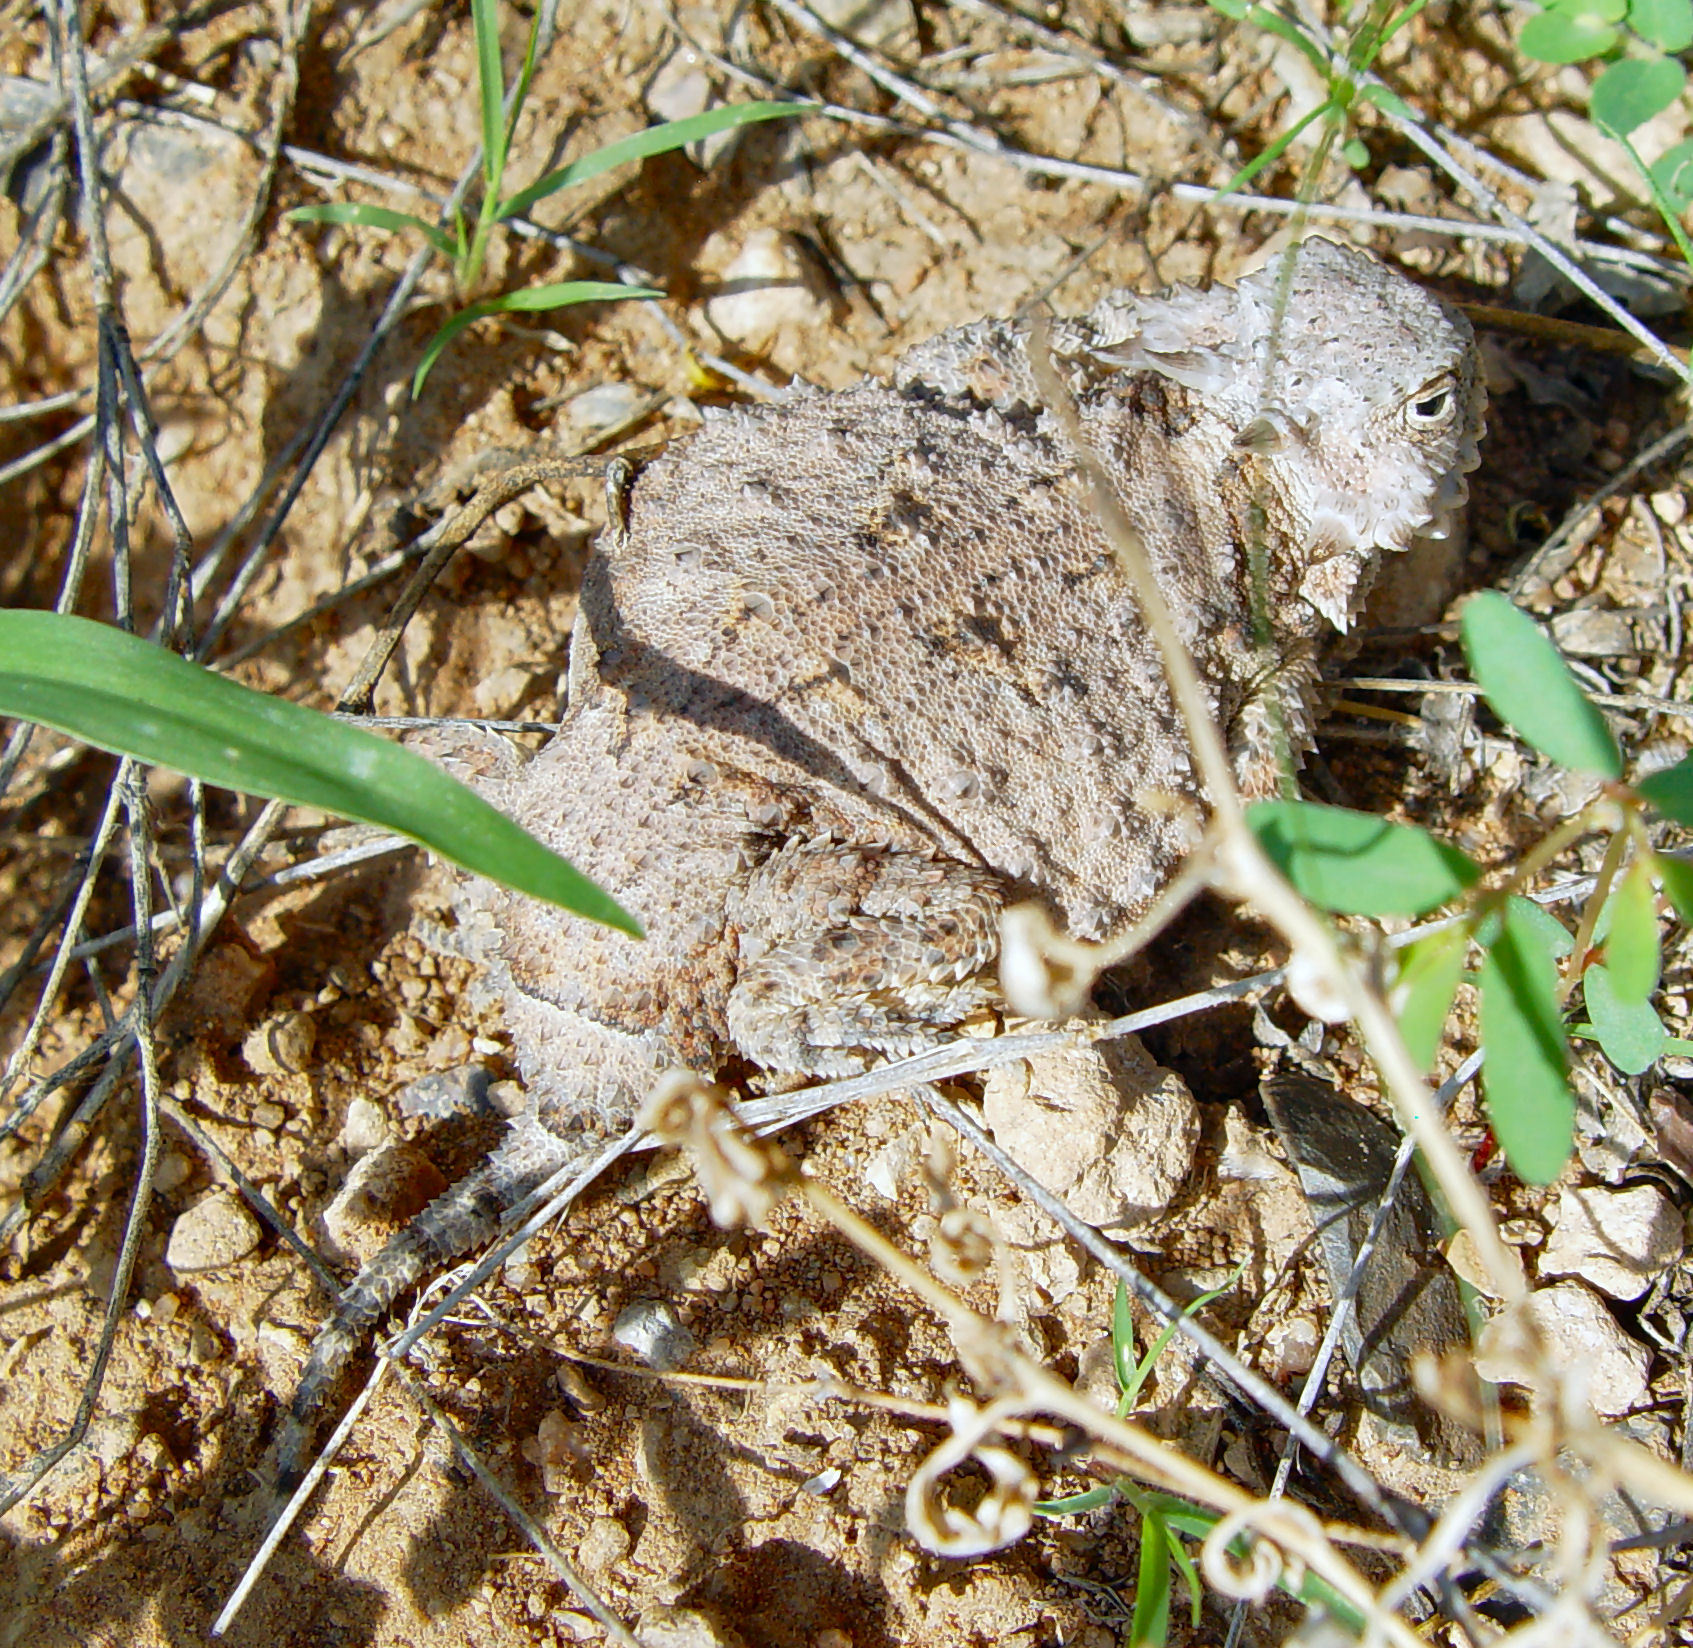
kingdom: Animalia
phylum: Chordata
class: Squamata
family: Phrynosomatidae
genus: Phrynosoma
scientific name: Phrynosoma modestum
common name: Roundtail horned lizard
